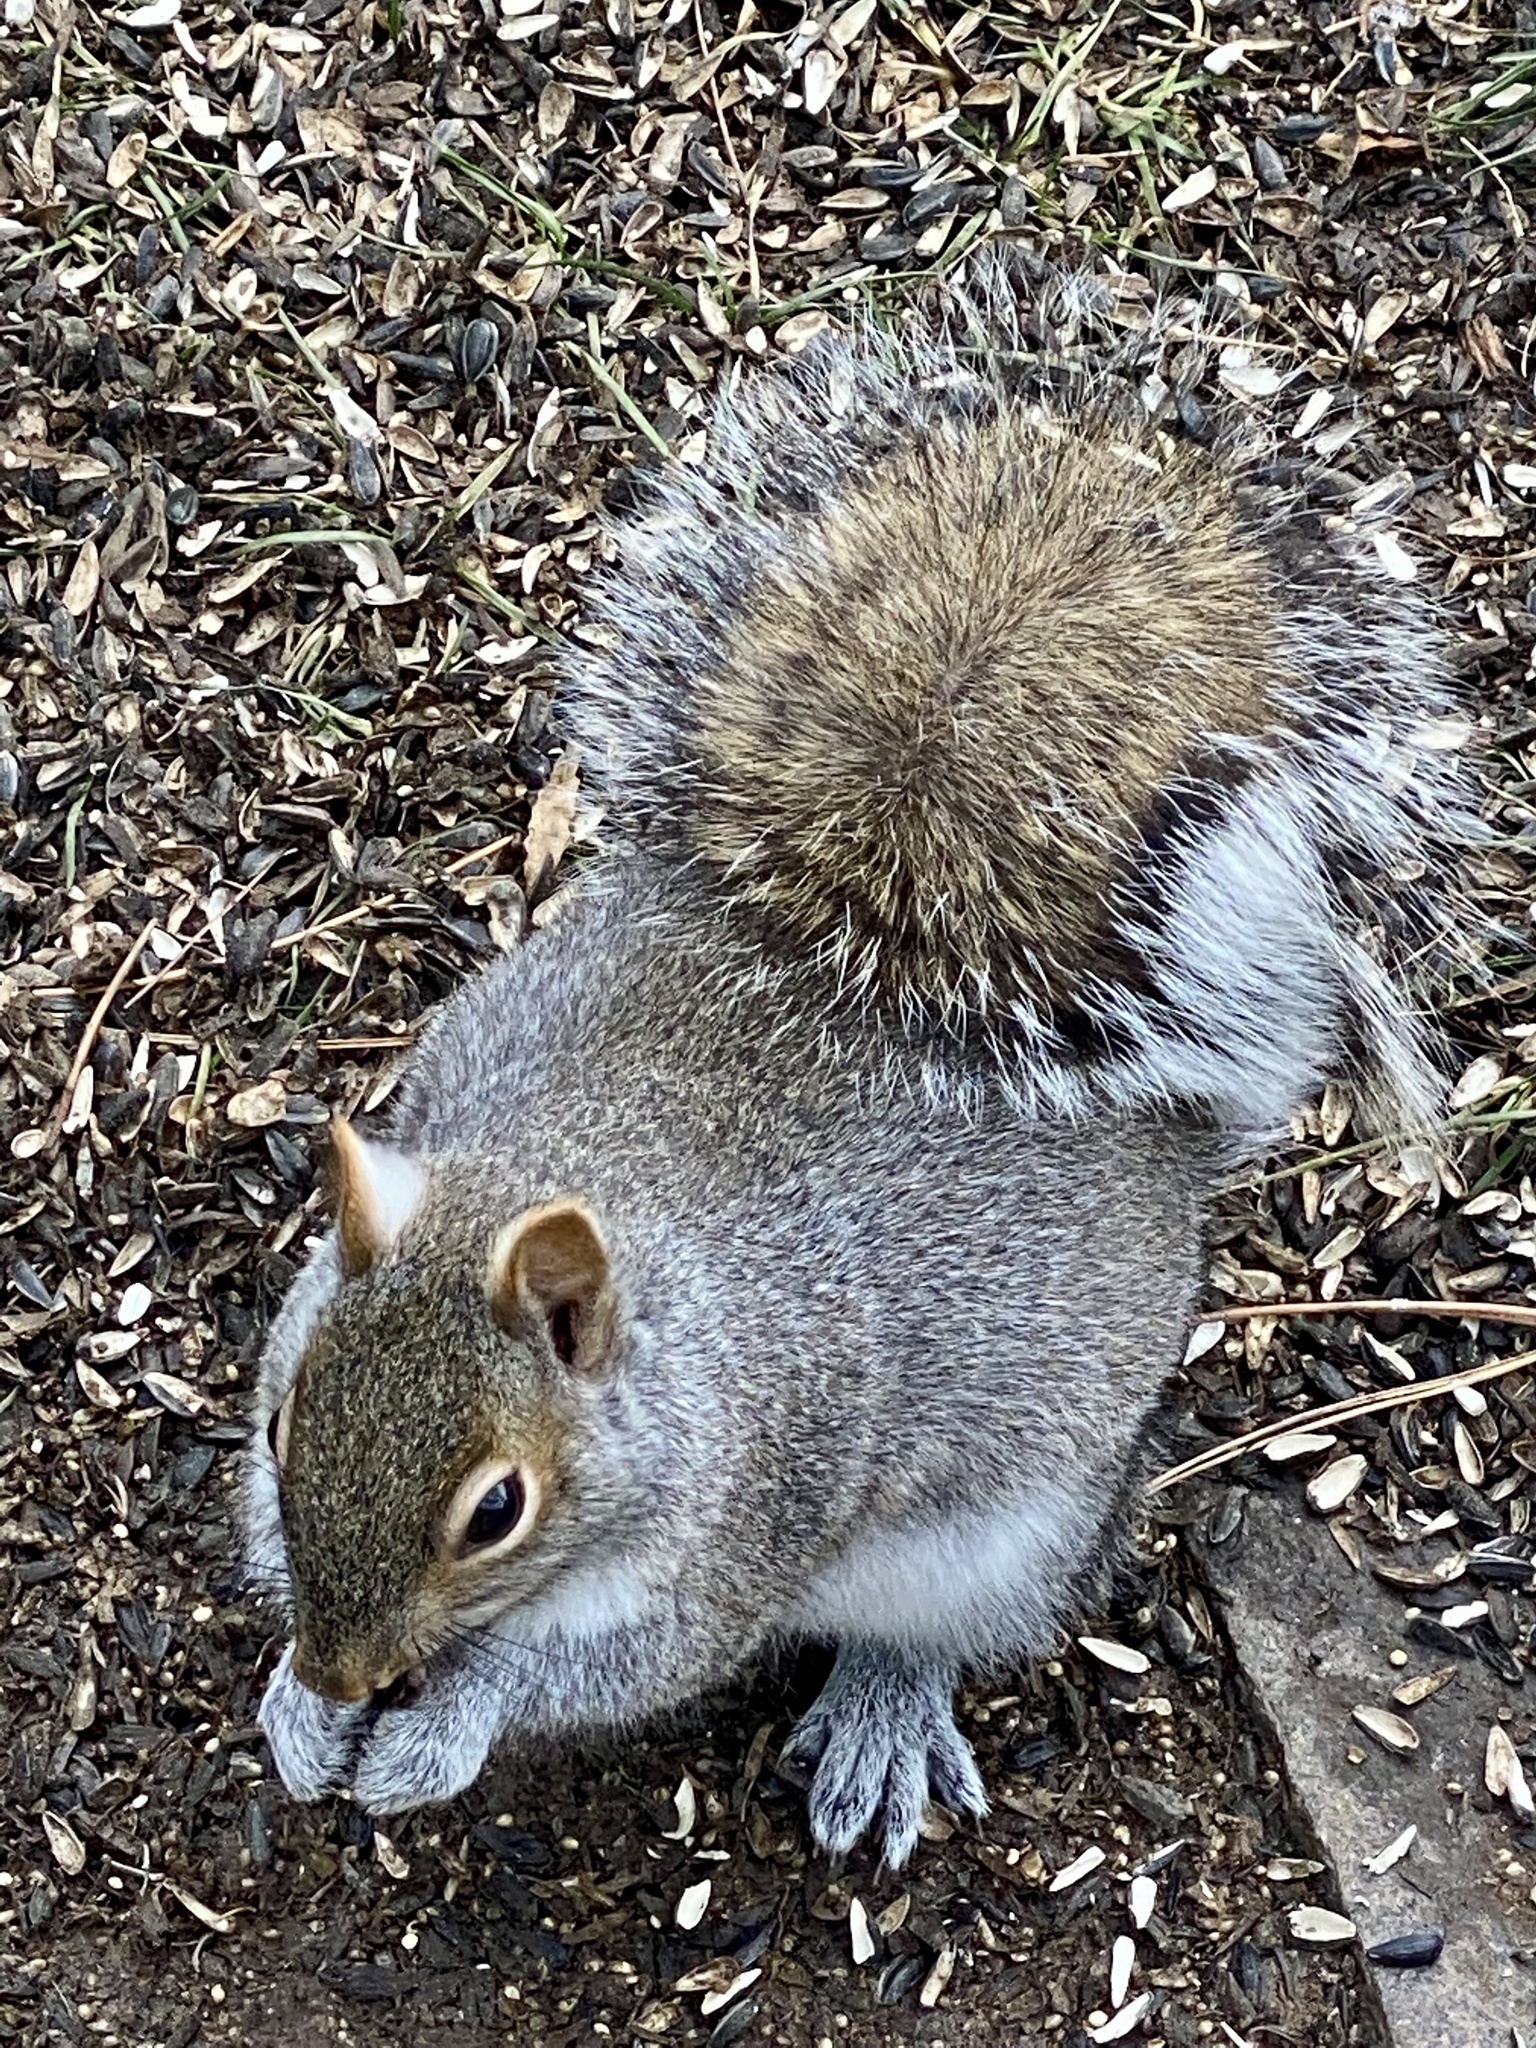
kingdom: Animalia
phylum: Chordata
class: Mammalia
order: Rodentia
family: Sciuridae
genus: Sciurus
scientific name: Sciurus carolinensis
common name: Eastern gray squirrel
